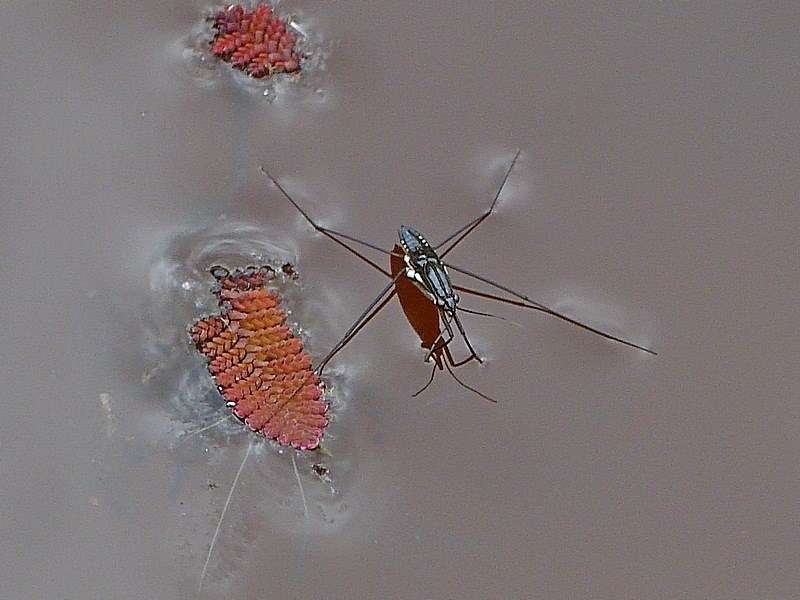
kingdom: Animalia
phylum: Arthropoda
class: Insecta
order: Hemiptera
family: Gerridae
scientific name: Gerridae
